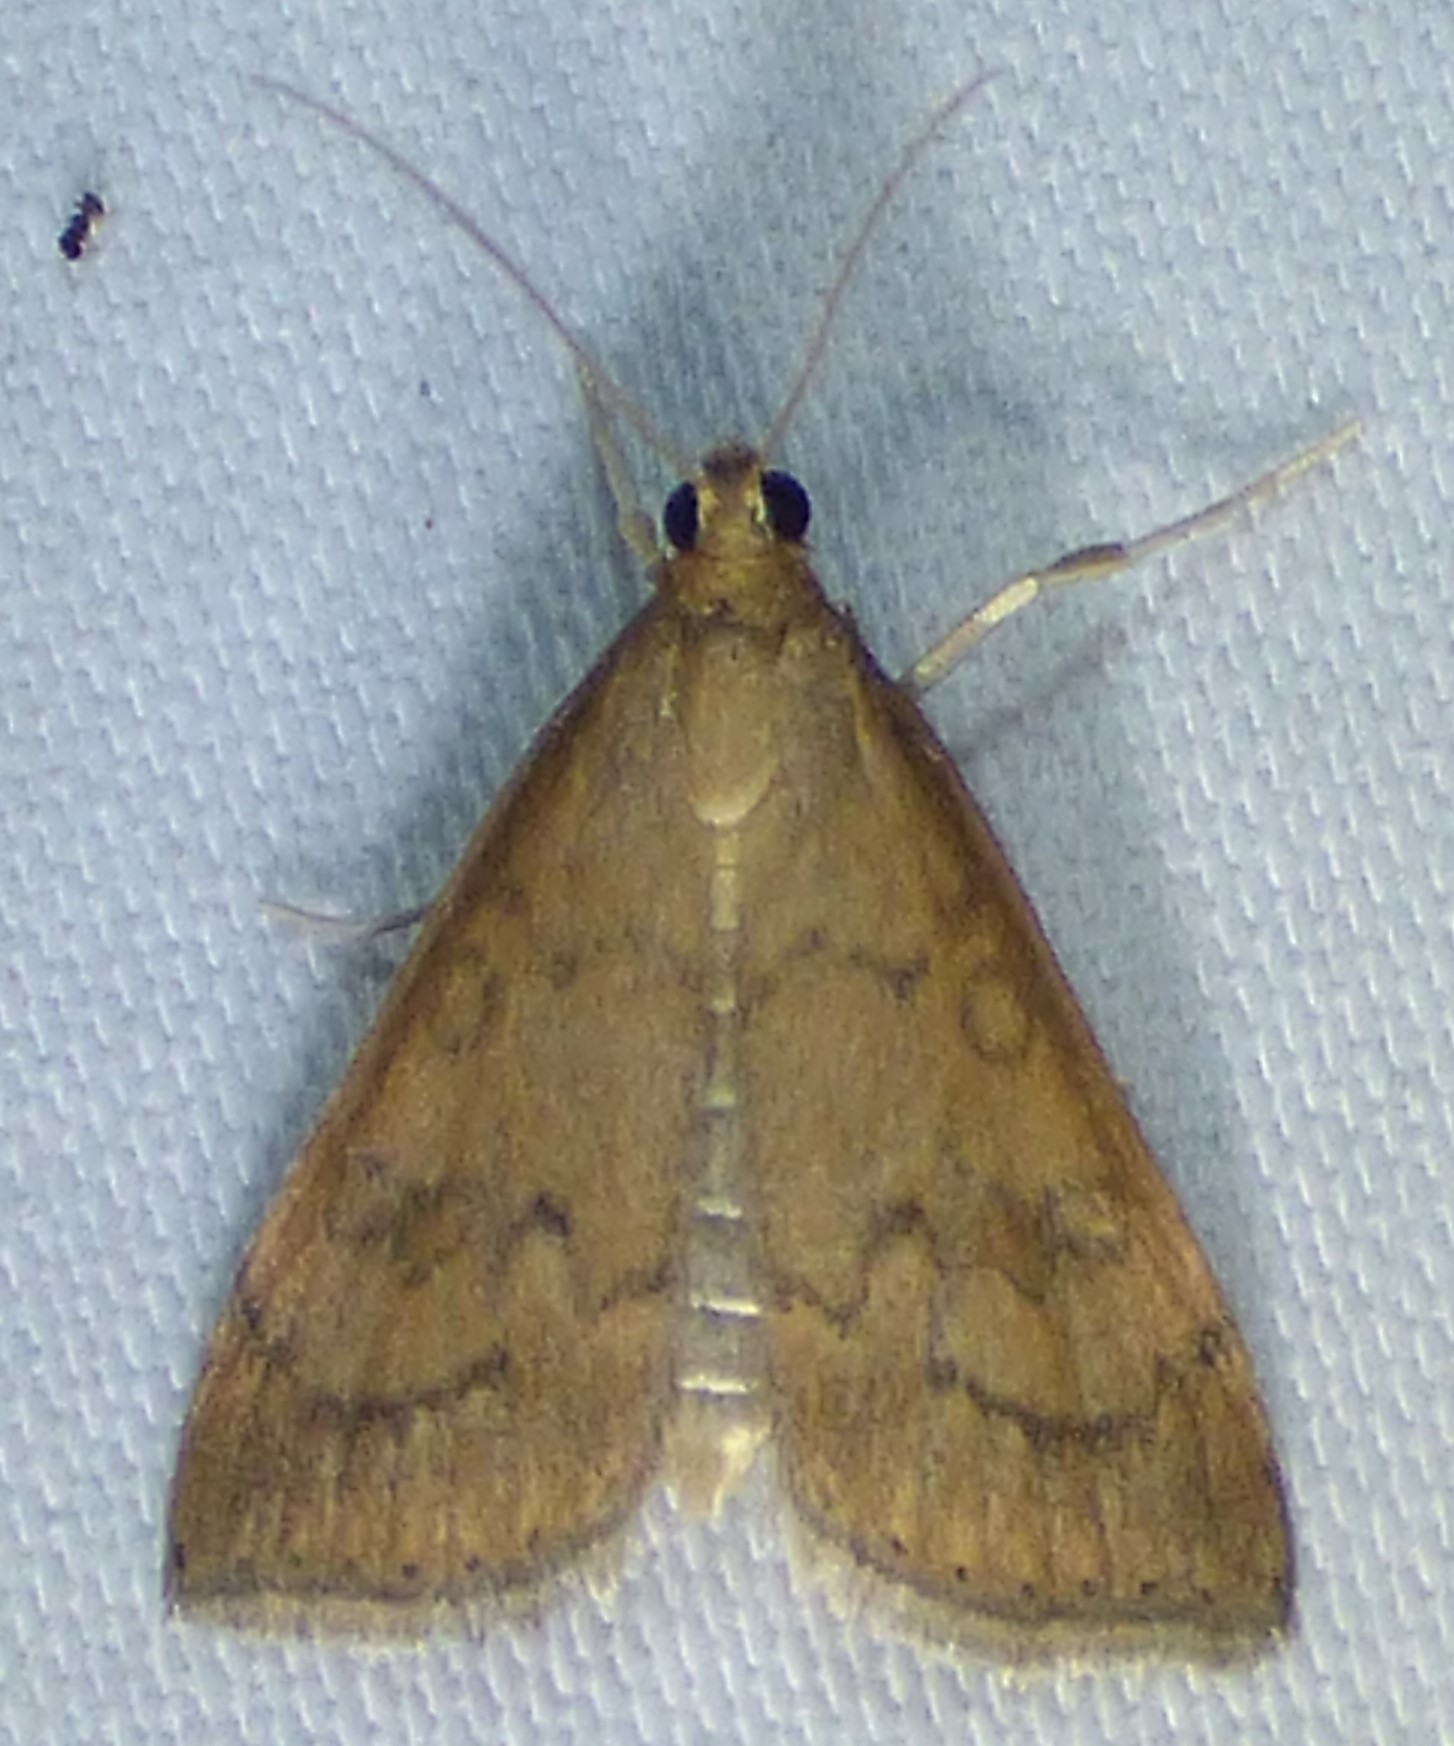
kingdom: Animalia
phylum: Arthropoda
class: Insecta
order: Lepidoptera
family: Crambidae
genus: Udea
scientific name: Udea rubigalis
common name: Celery leaftier moth
